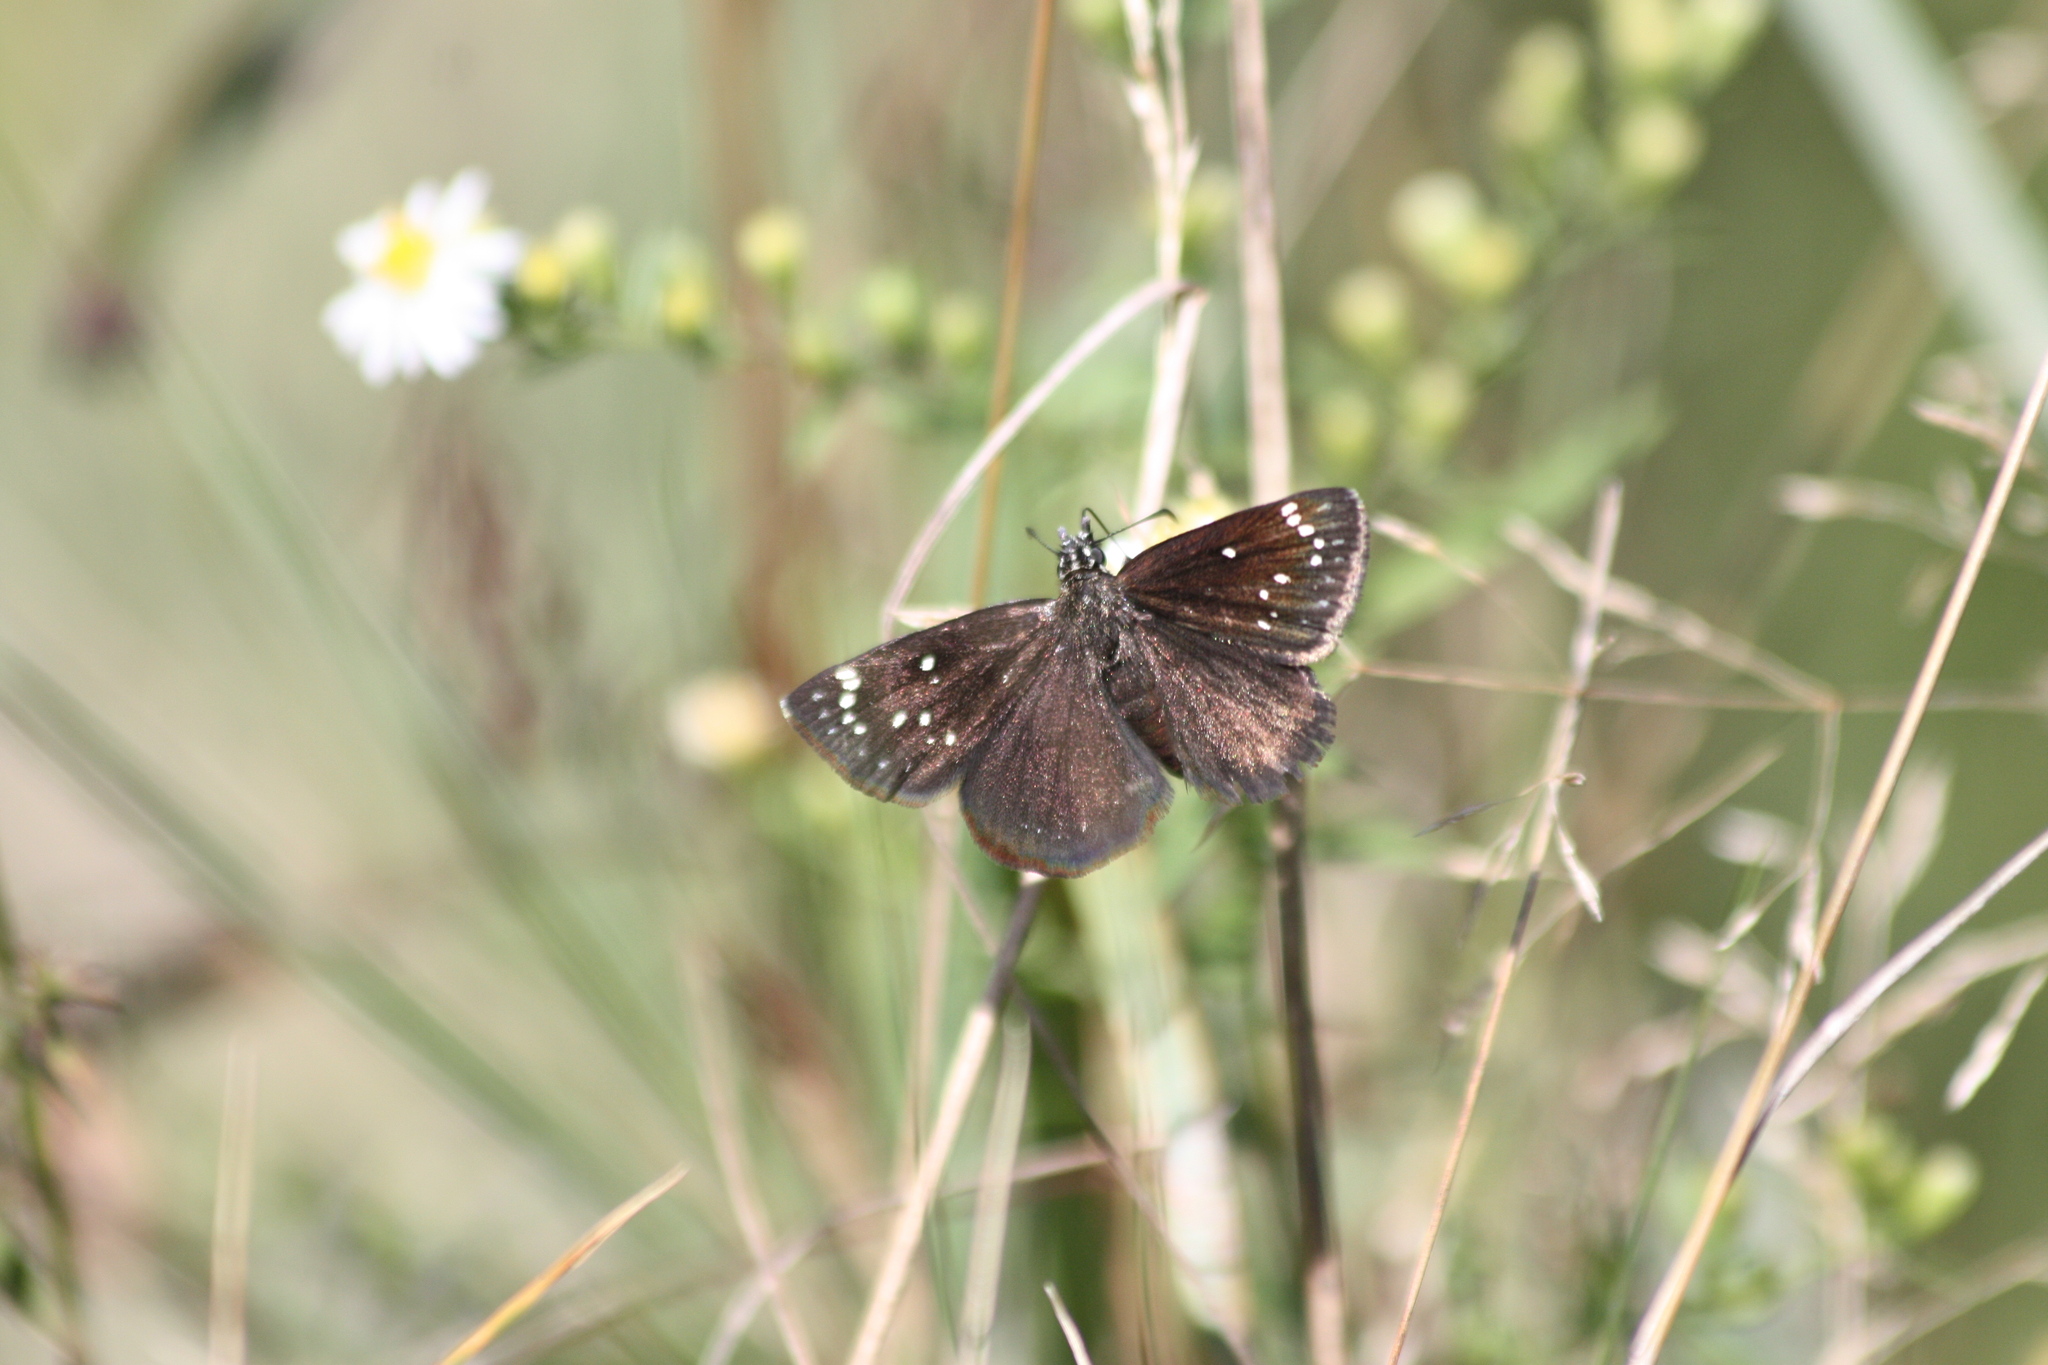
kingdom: Animalia
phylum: Arthropoda
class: Insecta
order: Lepidoptera
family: Hesperiidae
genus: Pholisora
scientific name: Pholisora catullus
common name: Common sootywing
